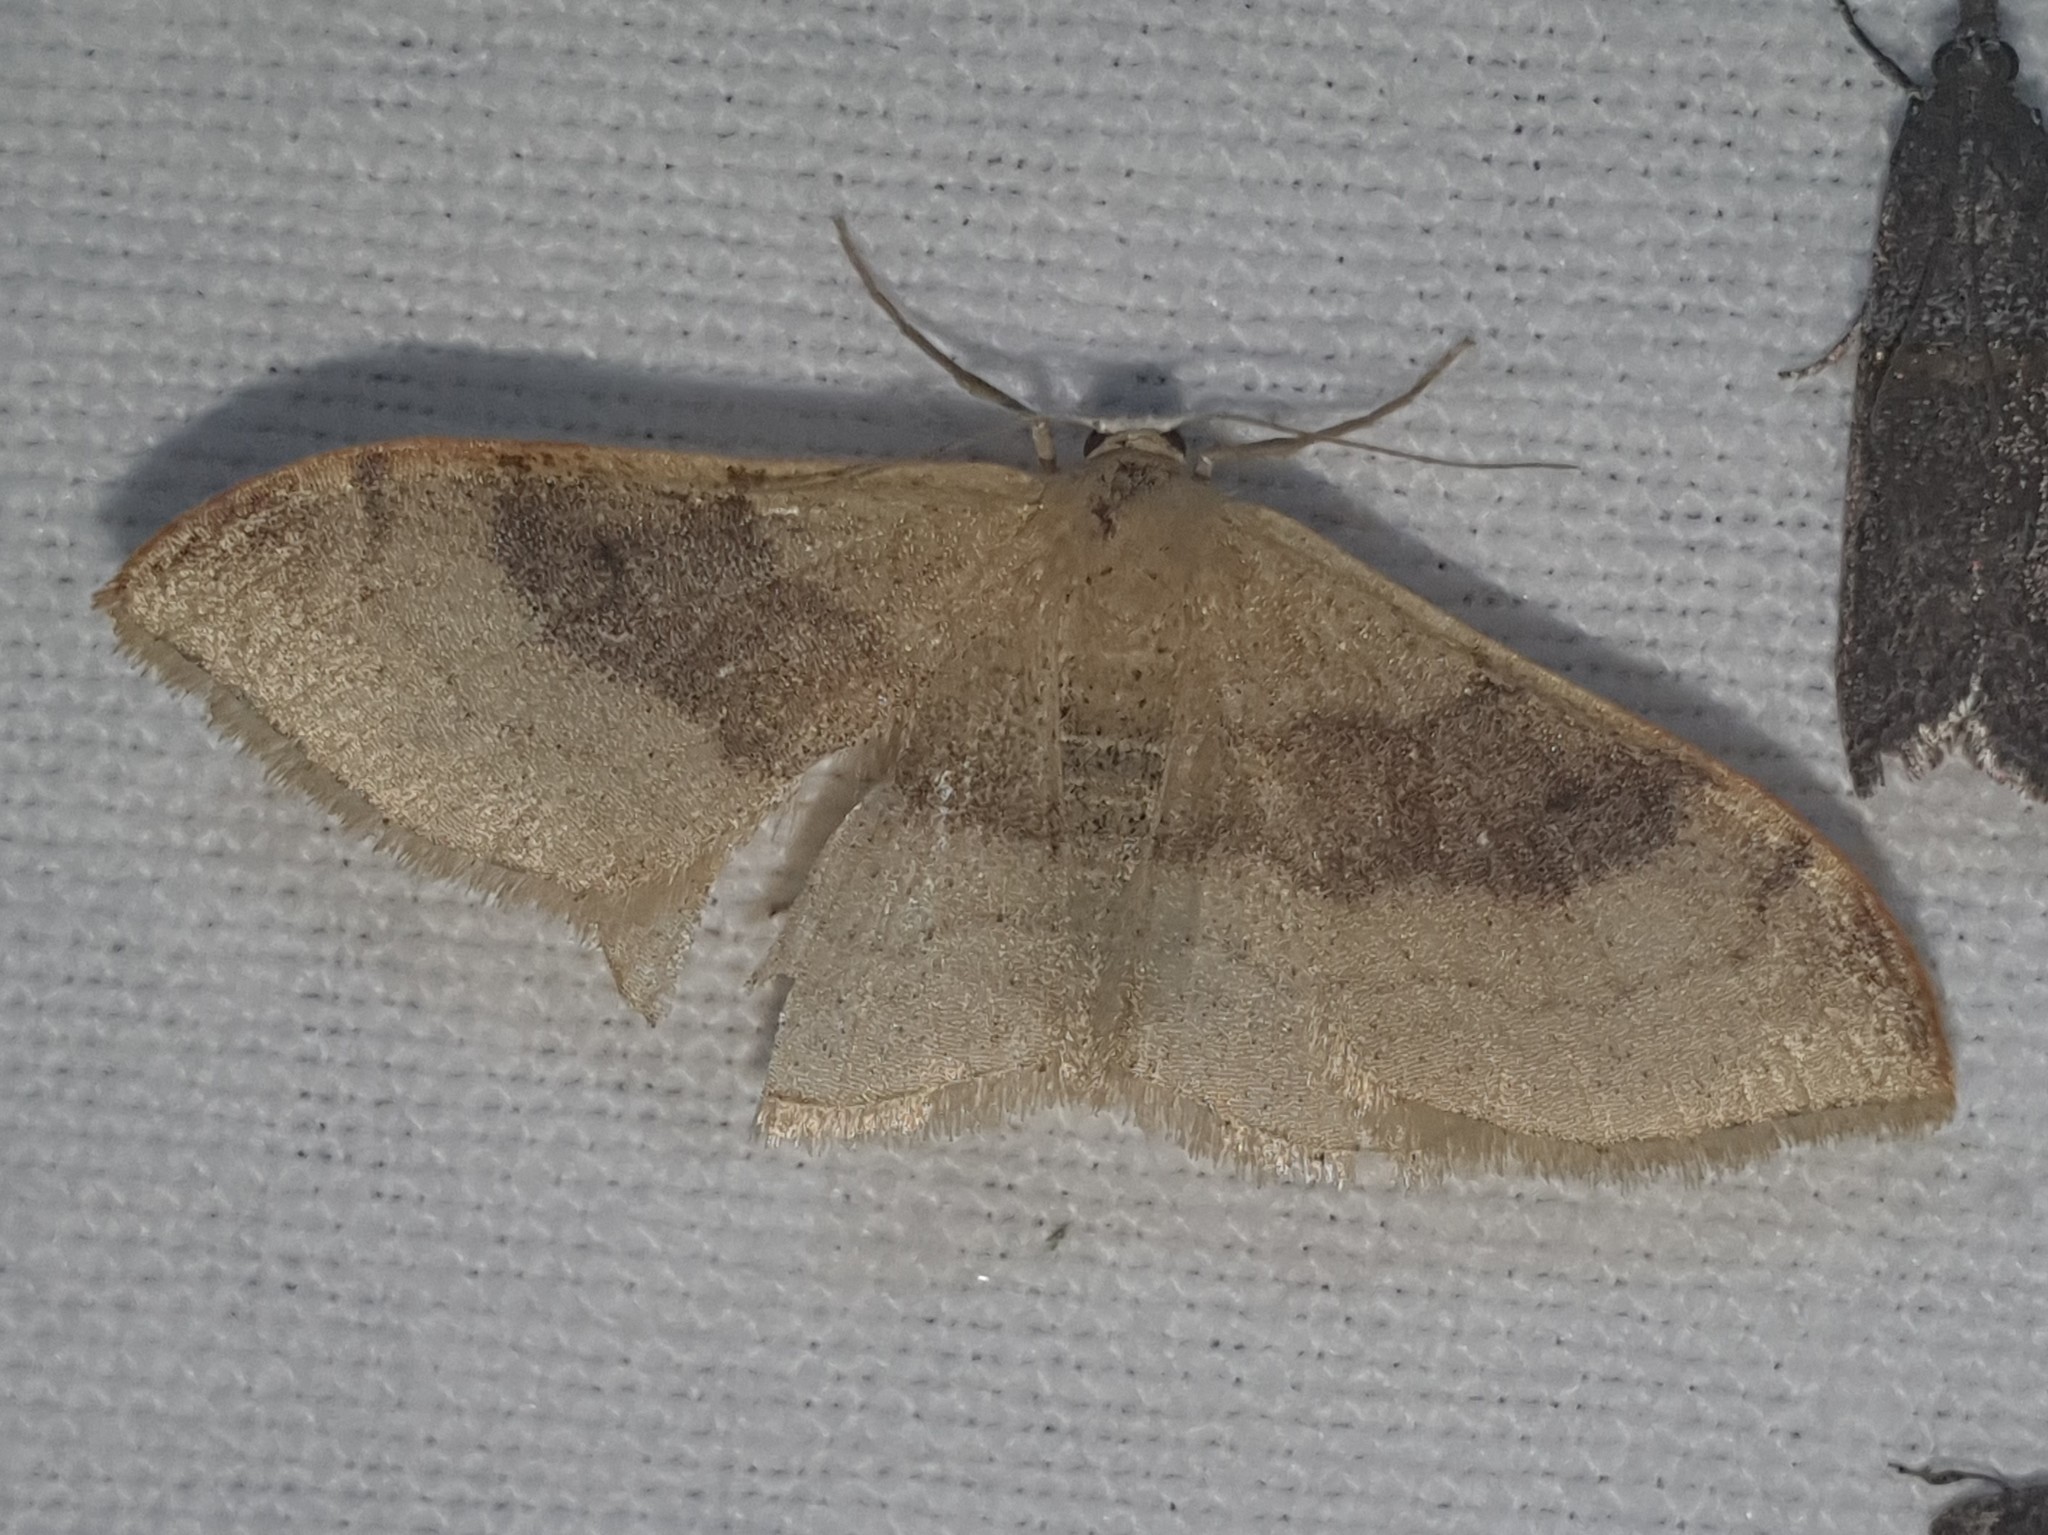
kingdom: Animalia
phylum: Arthropoda
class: Insecta
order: Lepidoptera
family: Geometridae
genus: Idaea
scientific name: Idaea degeneraria
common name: Portland ribbon wave
